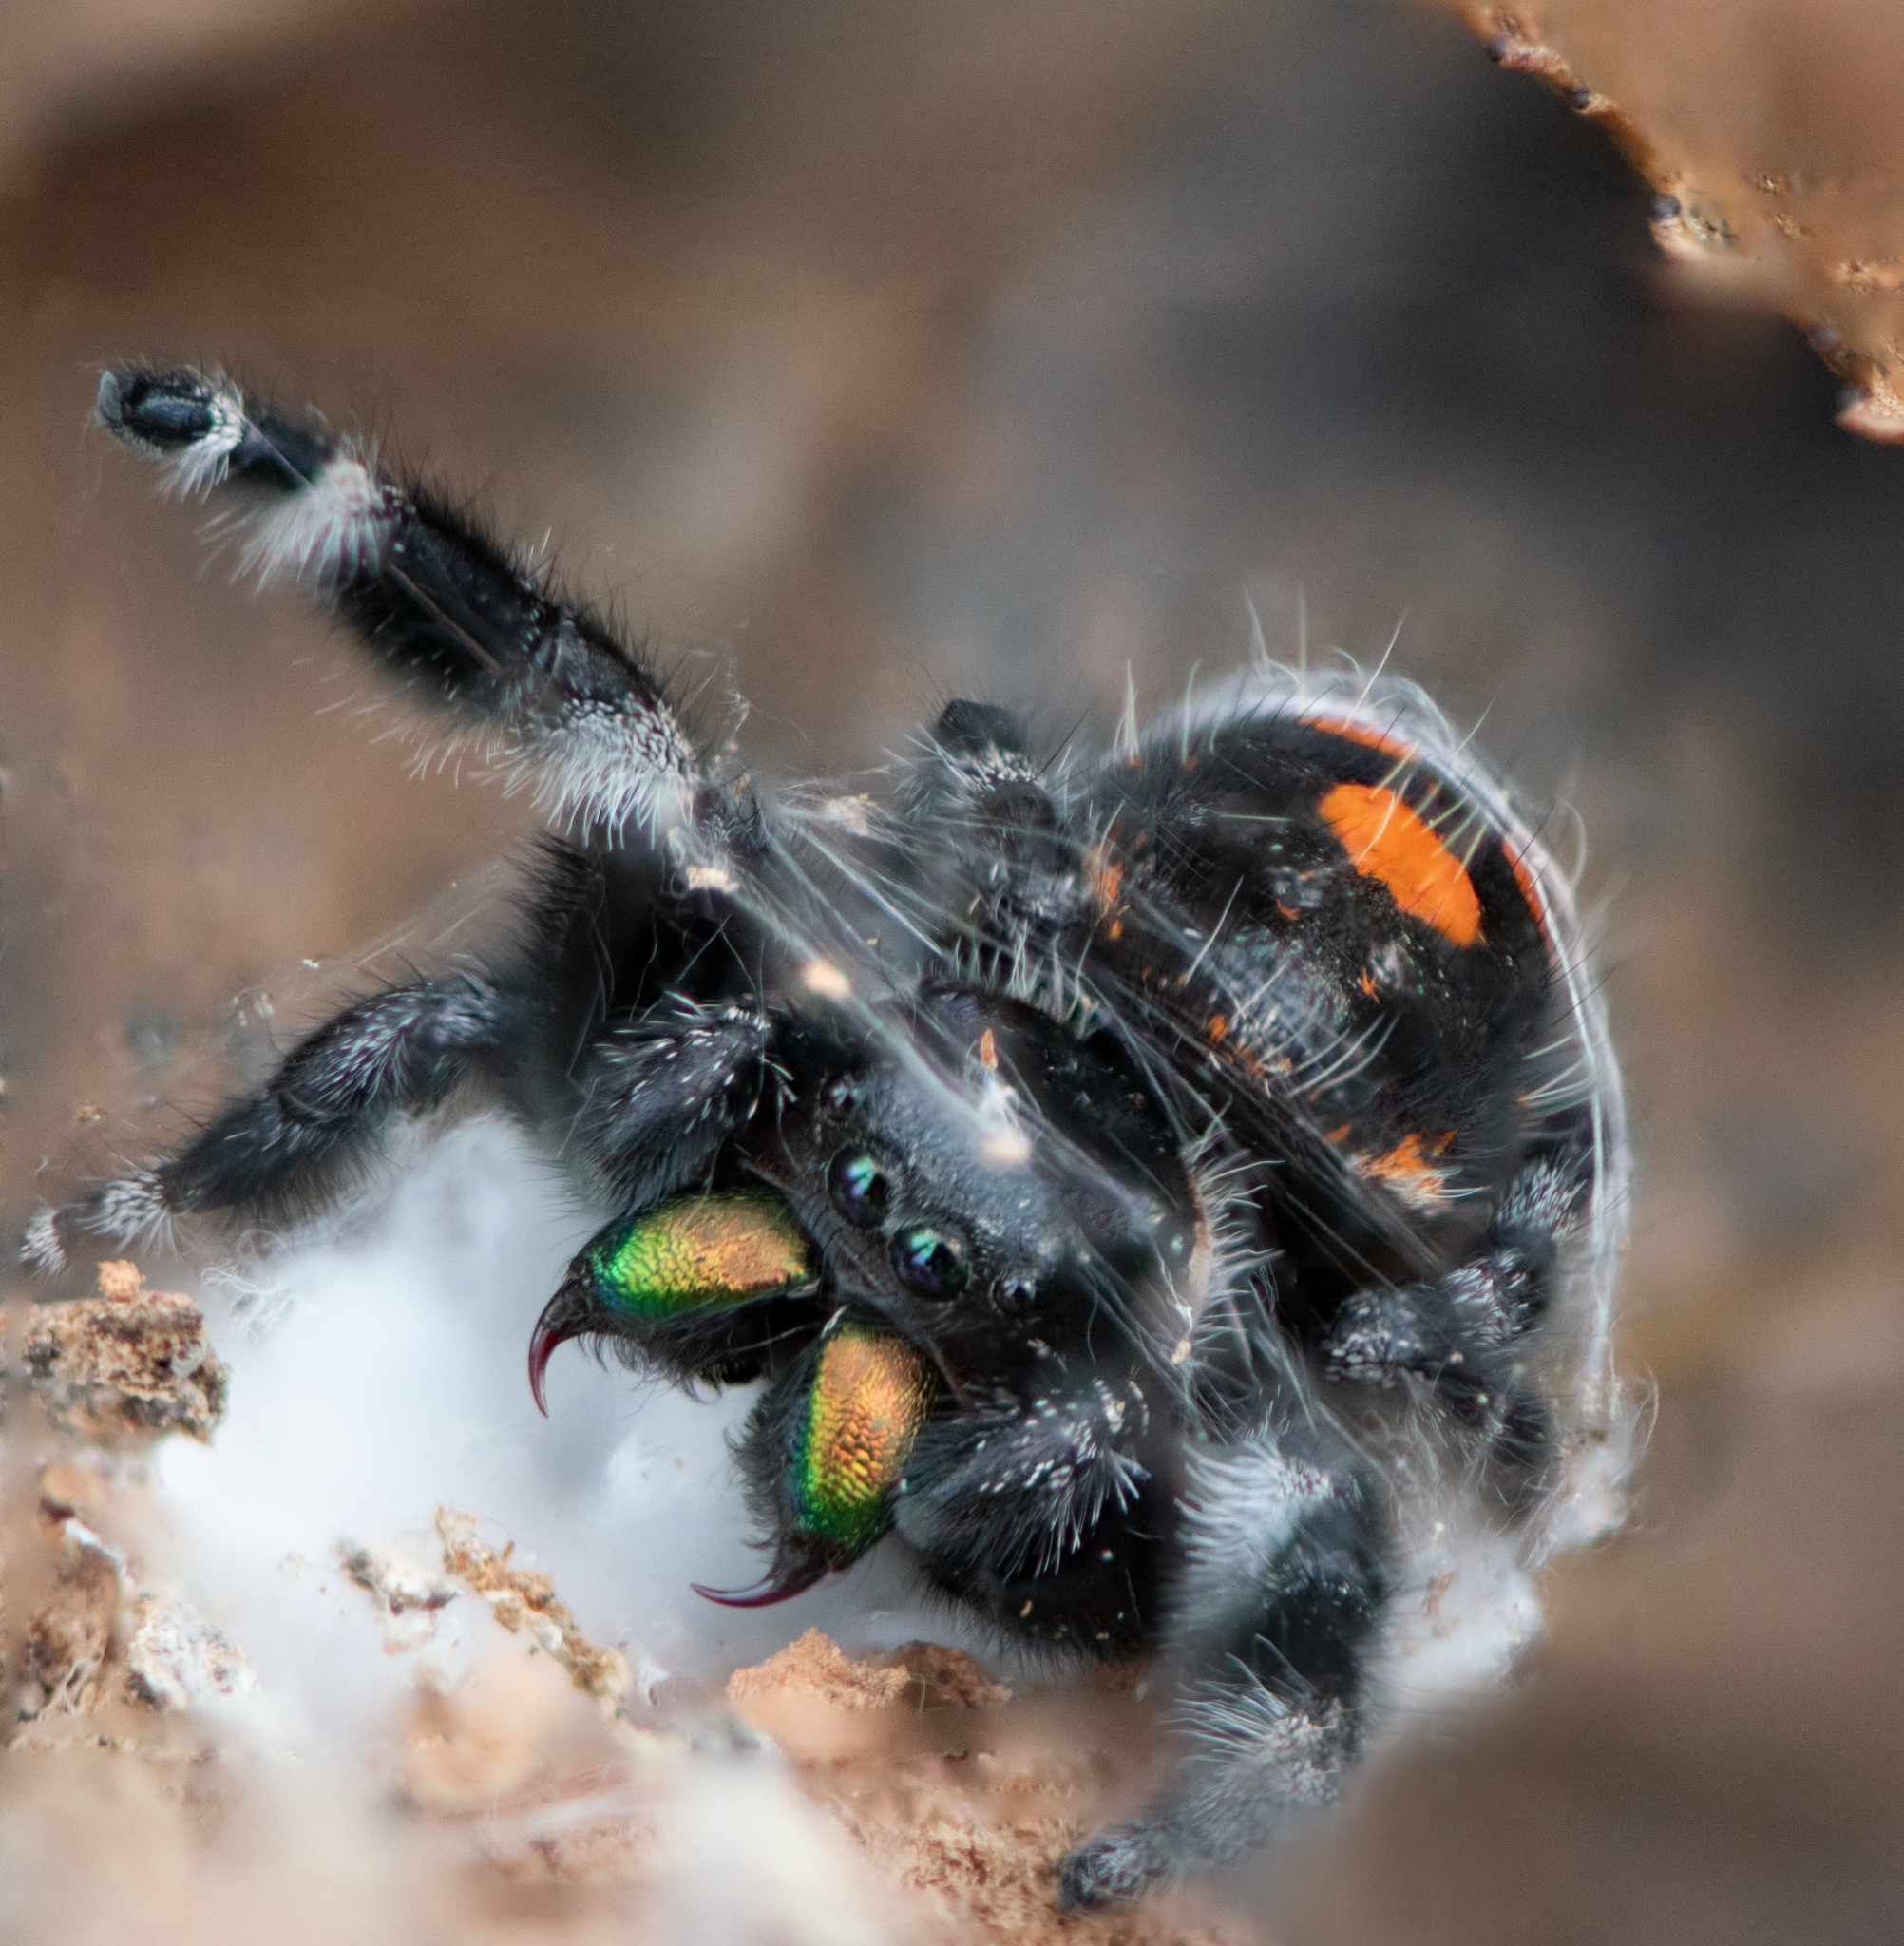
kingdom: Animalia
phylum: Arthropoda
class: Arachnida
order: Araneae
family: Salticidae
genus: Phidippus
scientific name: Phidippus audax
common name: Bold jumper
